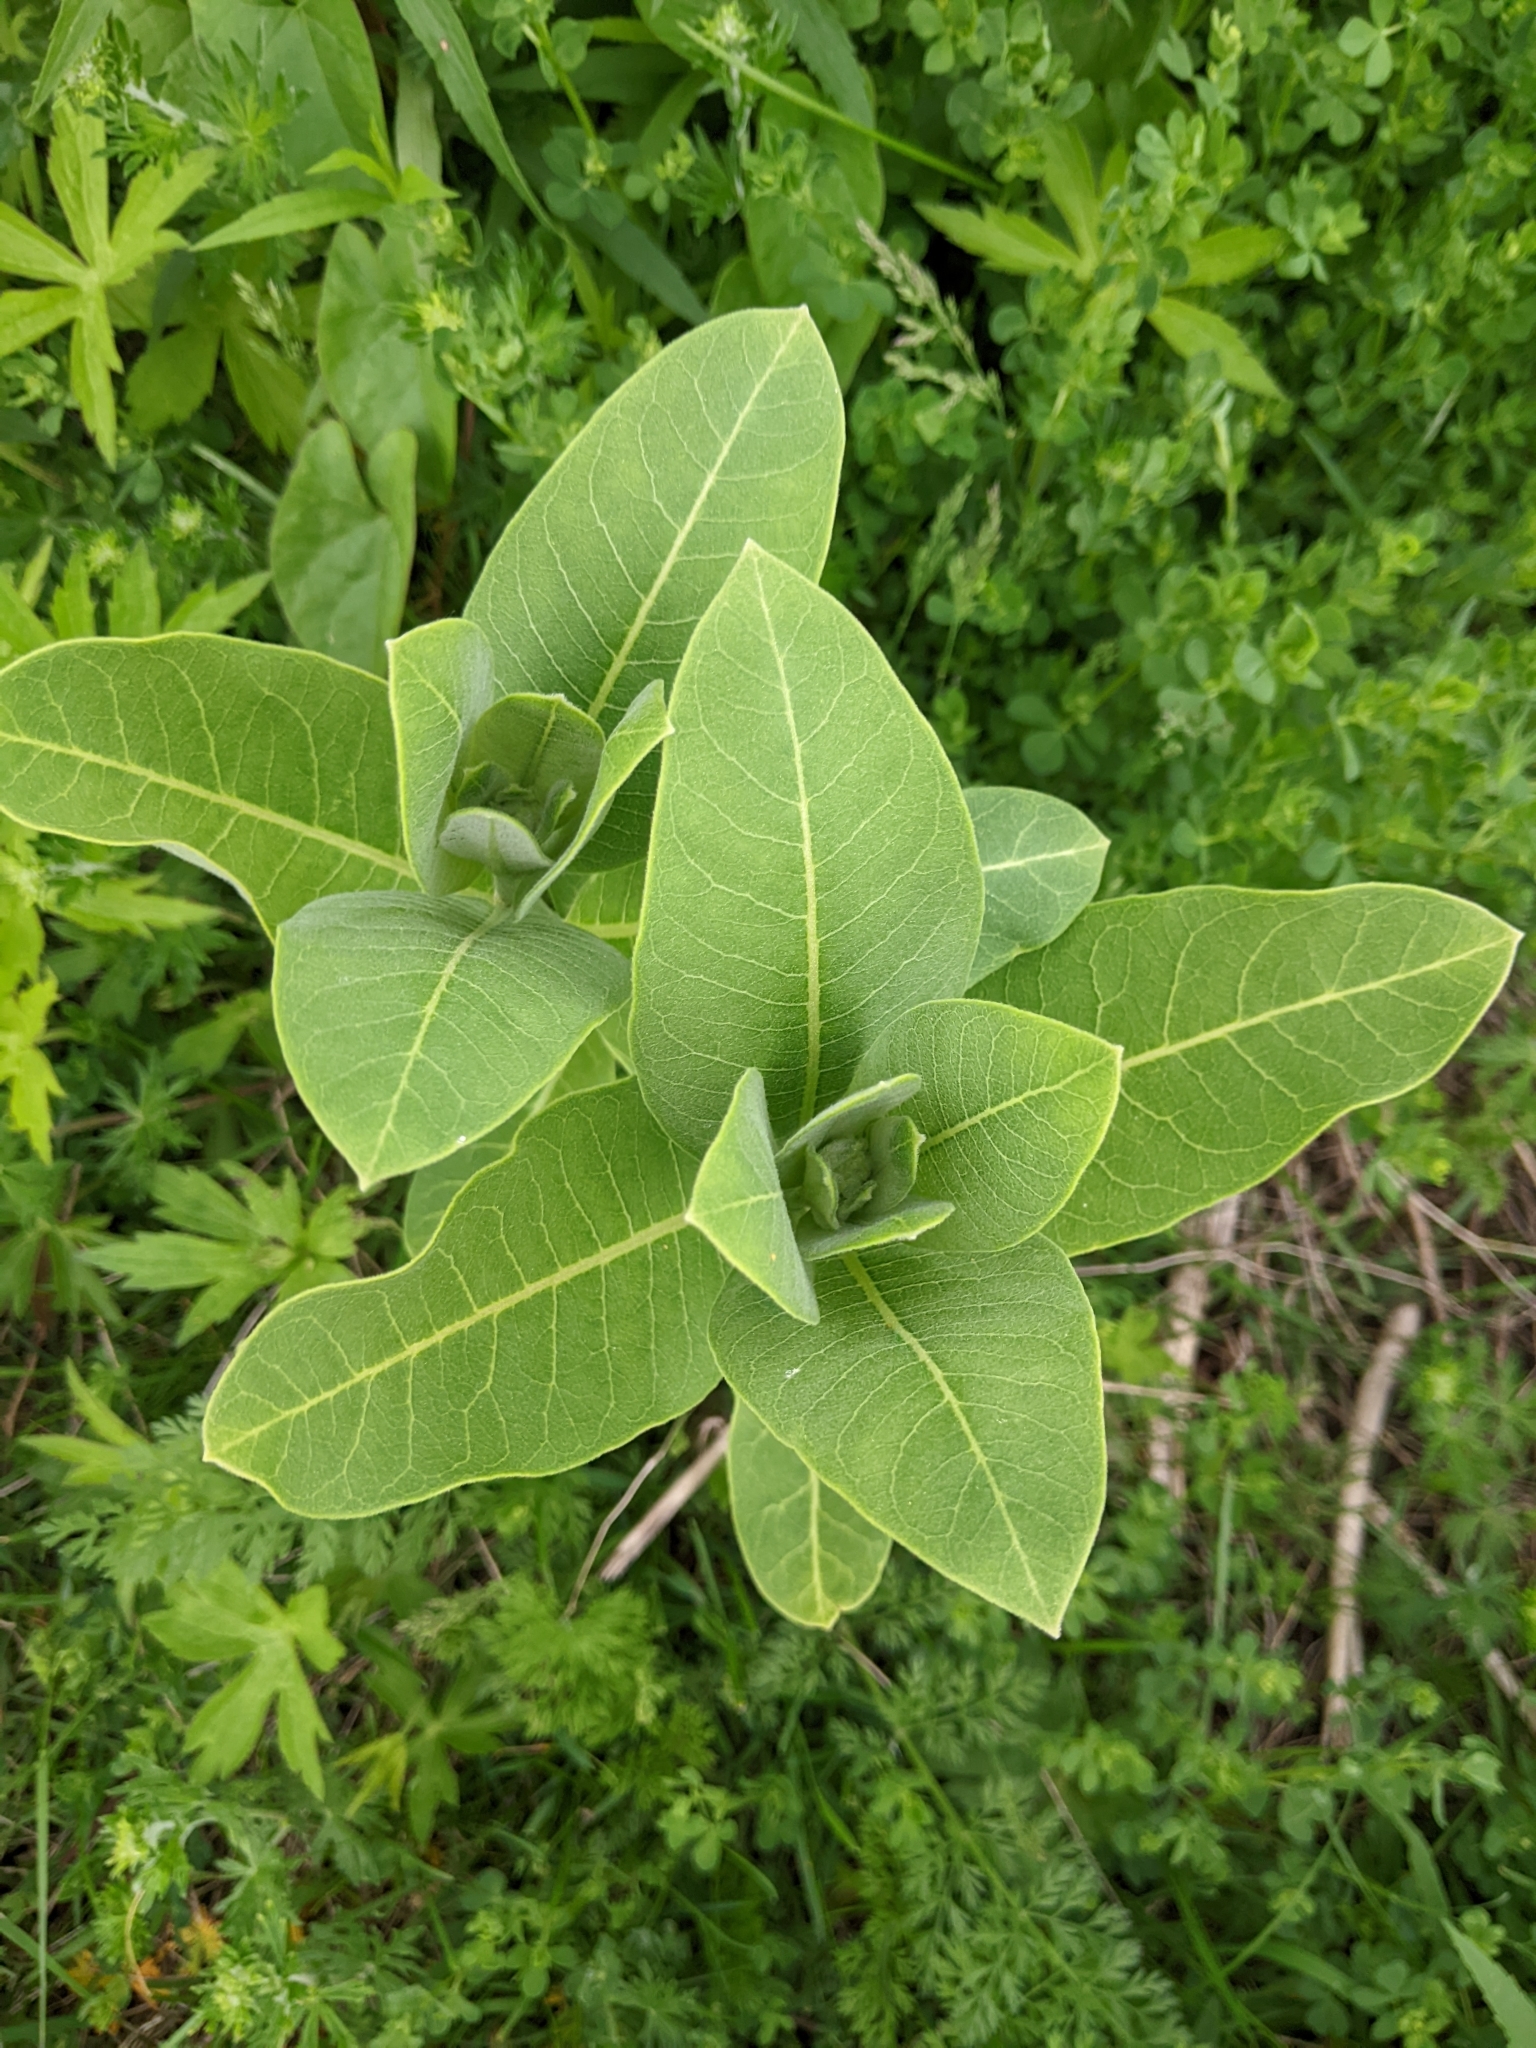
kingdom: Plantae
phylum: Tracheophyta
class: Magnoliopsida
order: Gentianales
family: Apocynaceae
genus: Asclepias
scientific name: Asclepias syriaca
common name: Common milkweed
